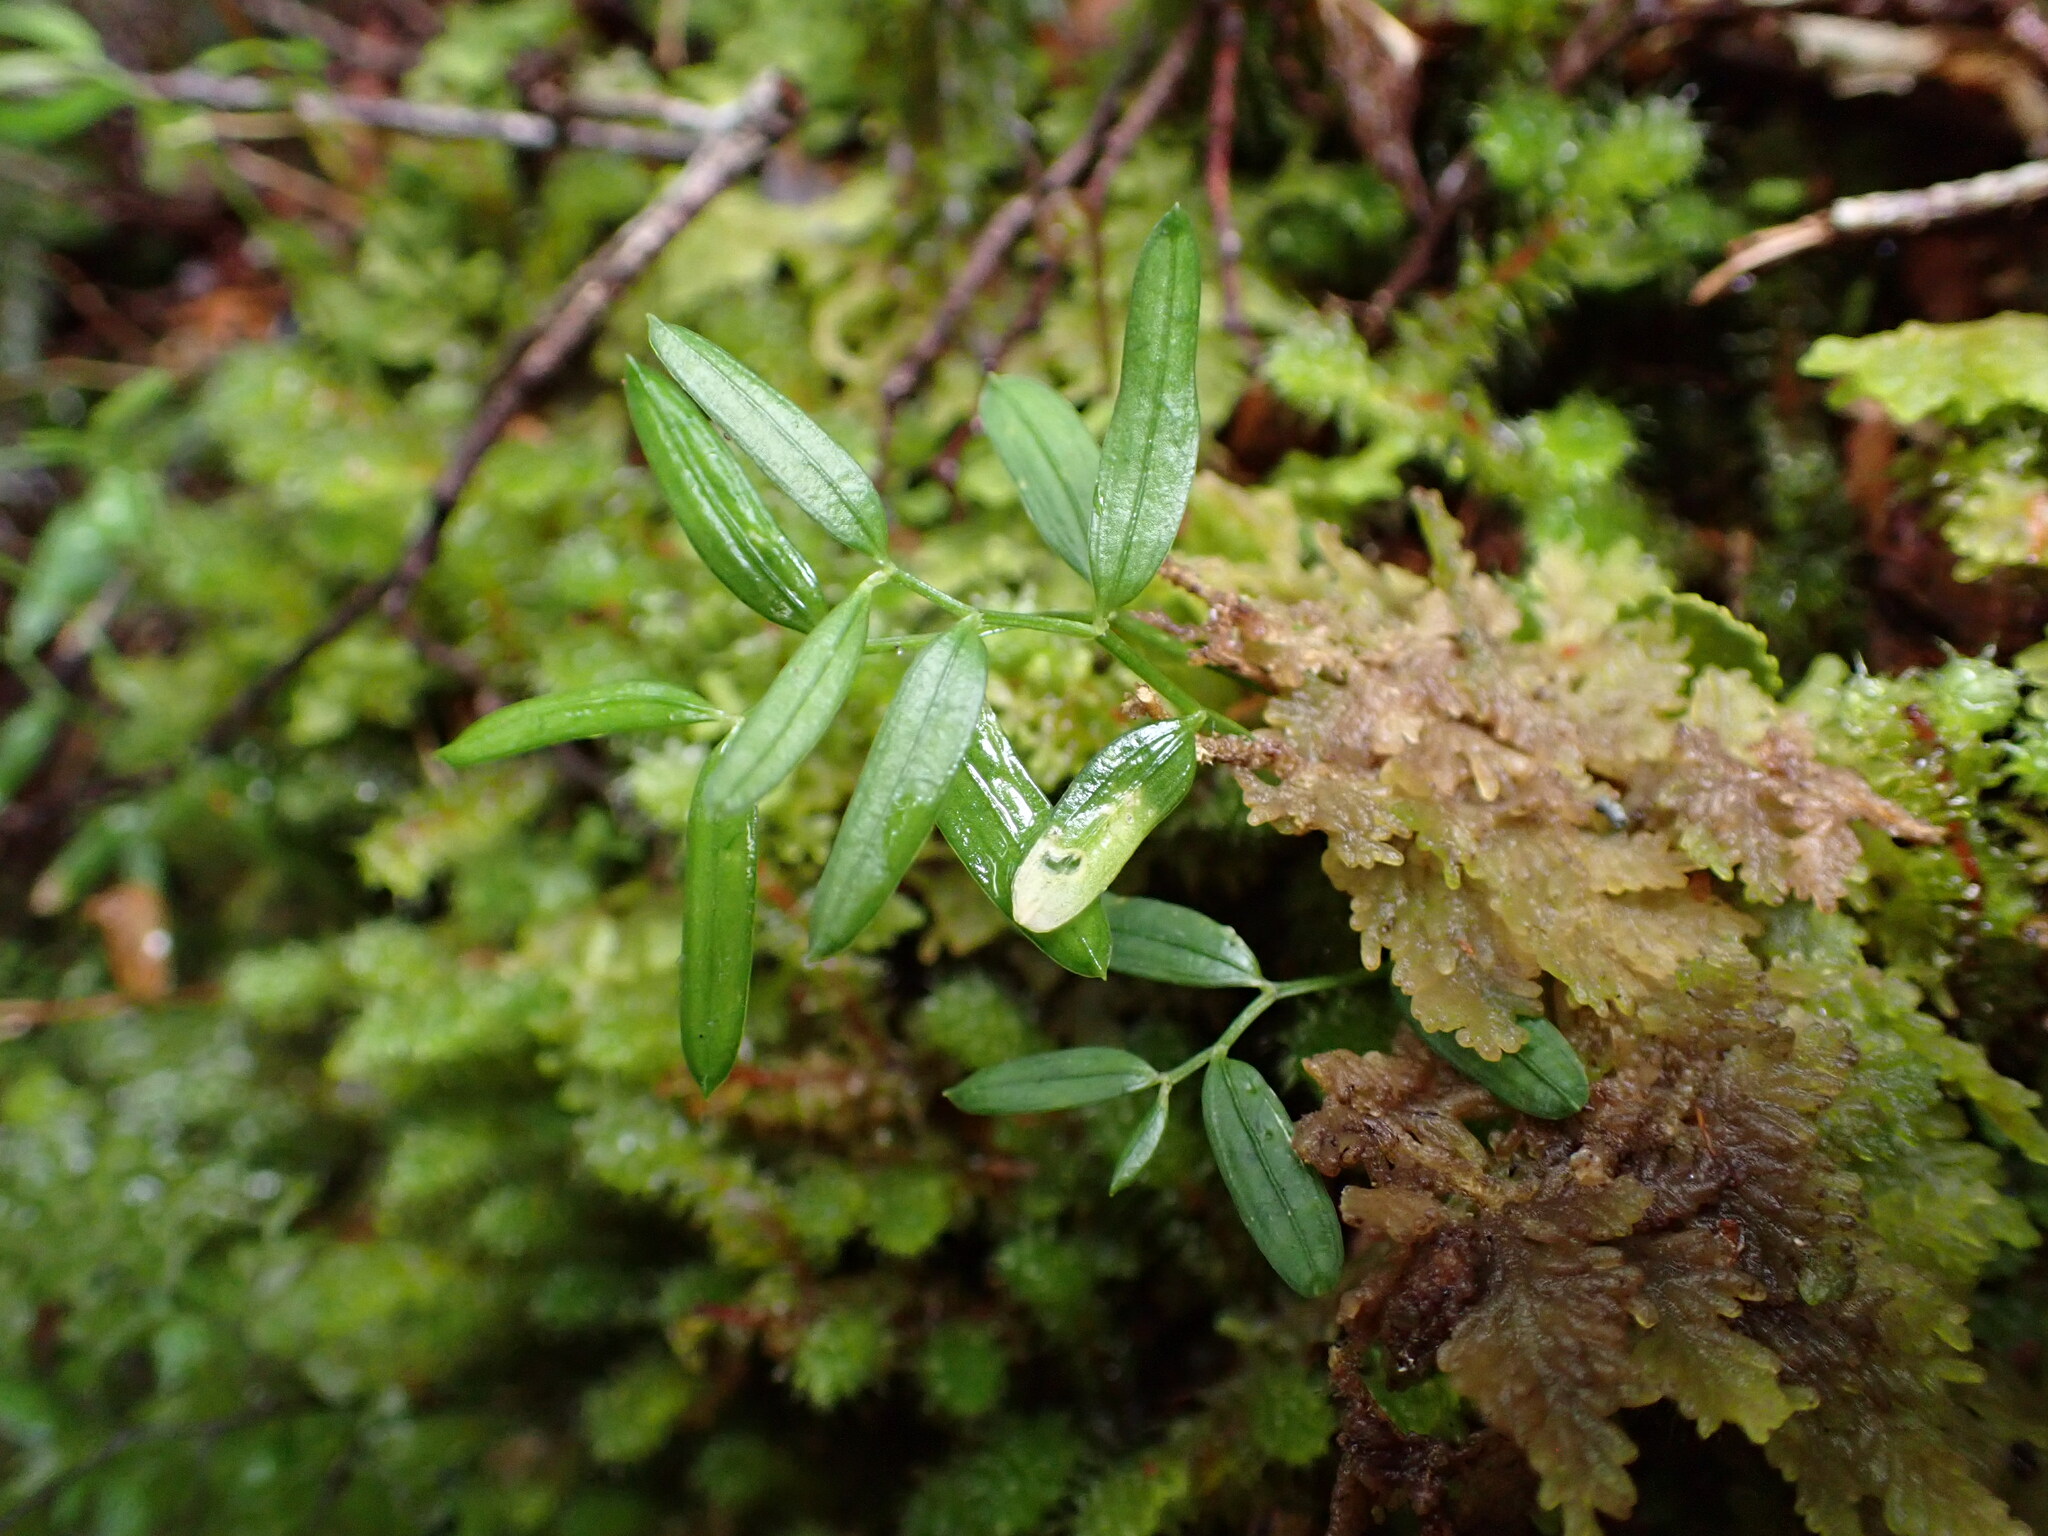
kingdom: Plantae
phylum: Tracheophyta
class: Liliopsida
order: Liliales
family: Alstroemeriaceae
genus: Luzuriaga
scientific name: Luzuriaga parviflora
